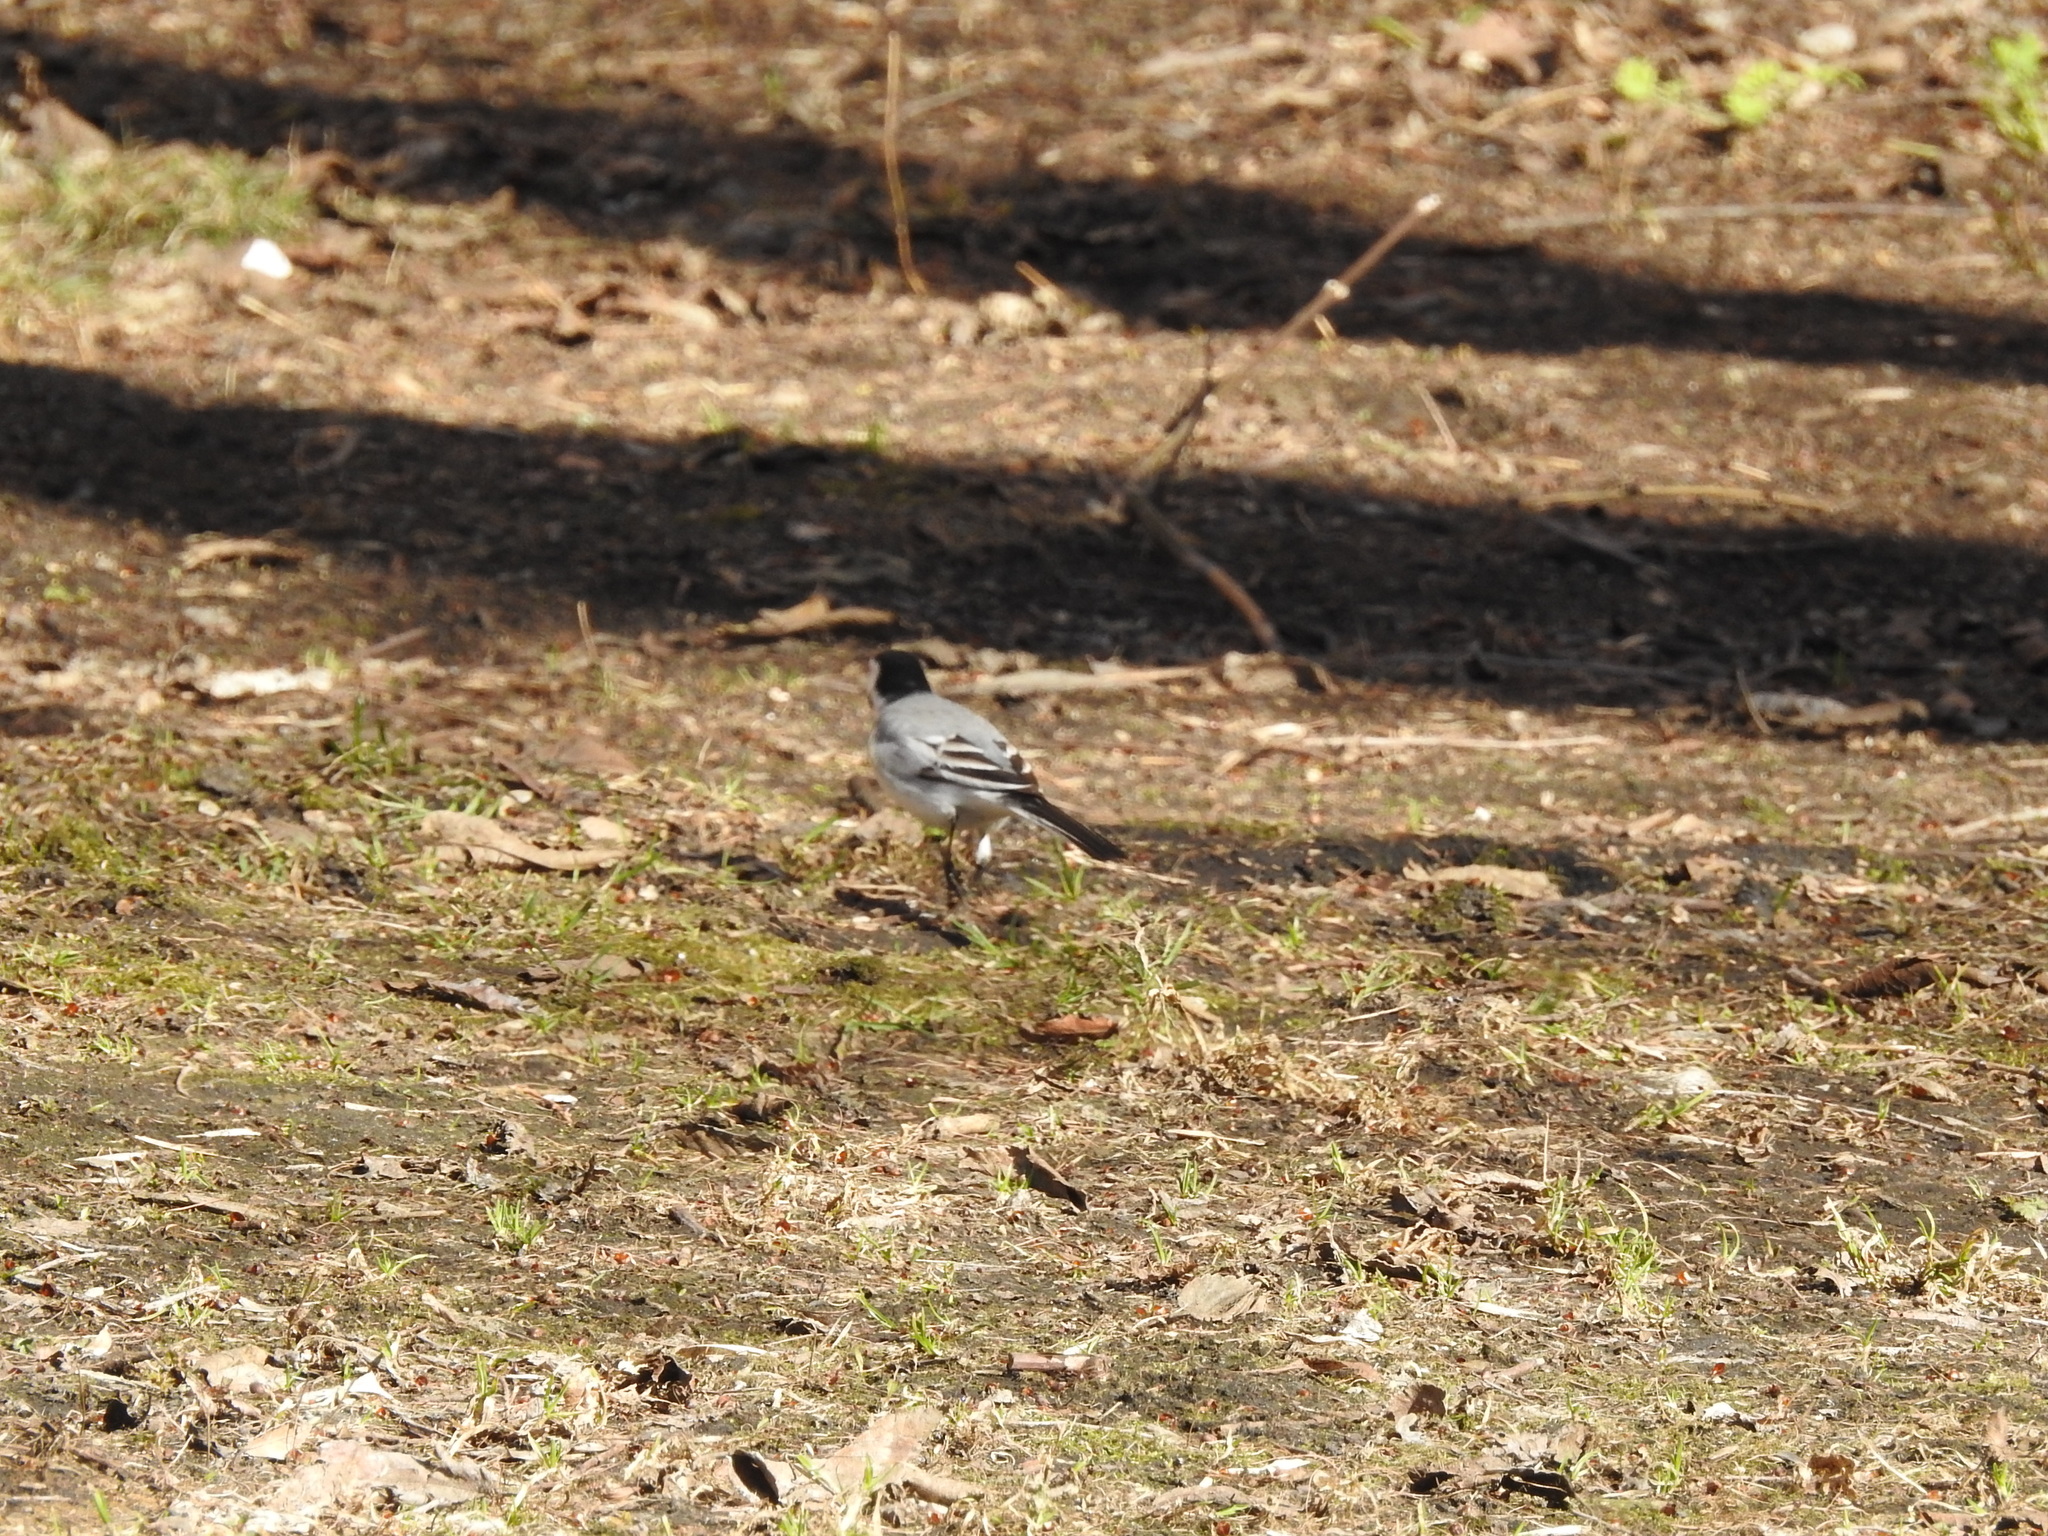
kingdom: Animalia
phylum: Chordata
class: Aves
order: Passeriformes
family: Motacillidae
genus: Motacilla
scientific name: Motacilla alba
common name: White wagtail
